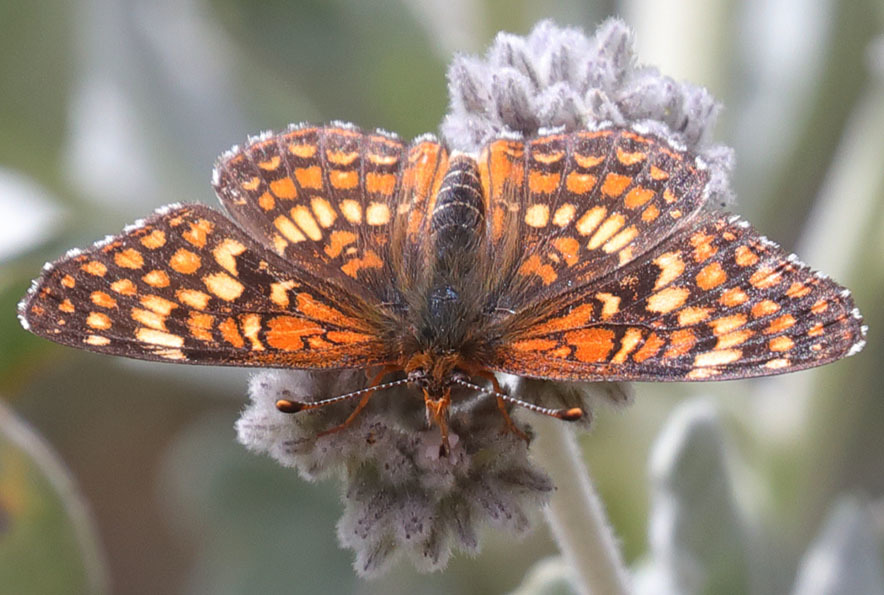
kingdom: Animalia
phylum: Arthropoda
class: Insecta
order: Lepidoptera
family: Nymphalidae
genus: Chlosyne
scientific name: Chlosyne gabbii
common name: Gabb's checkerspot
